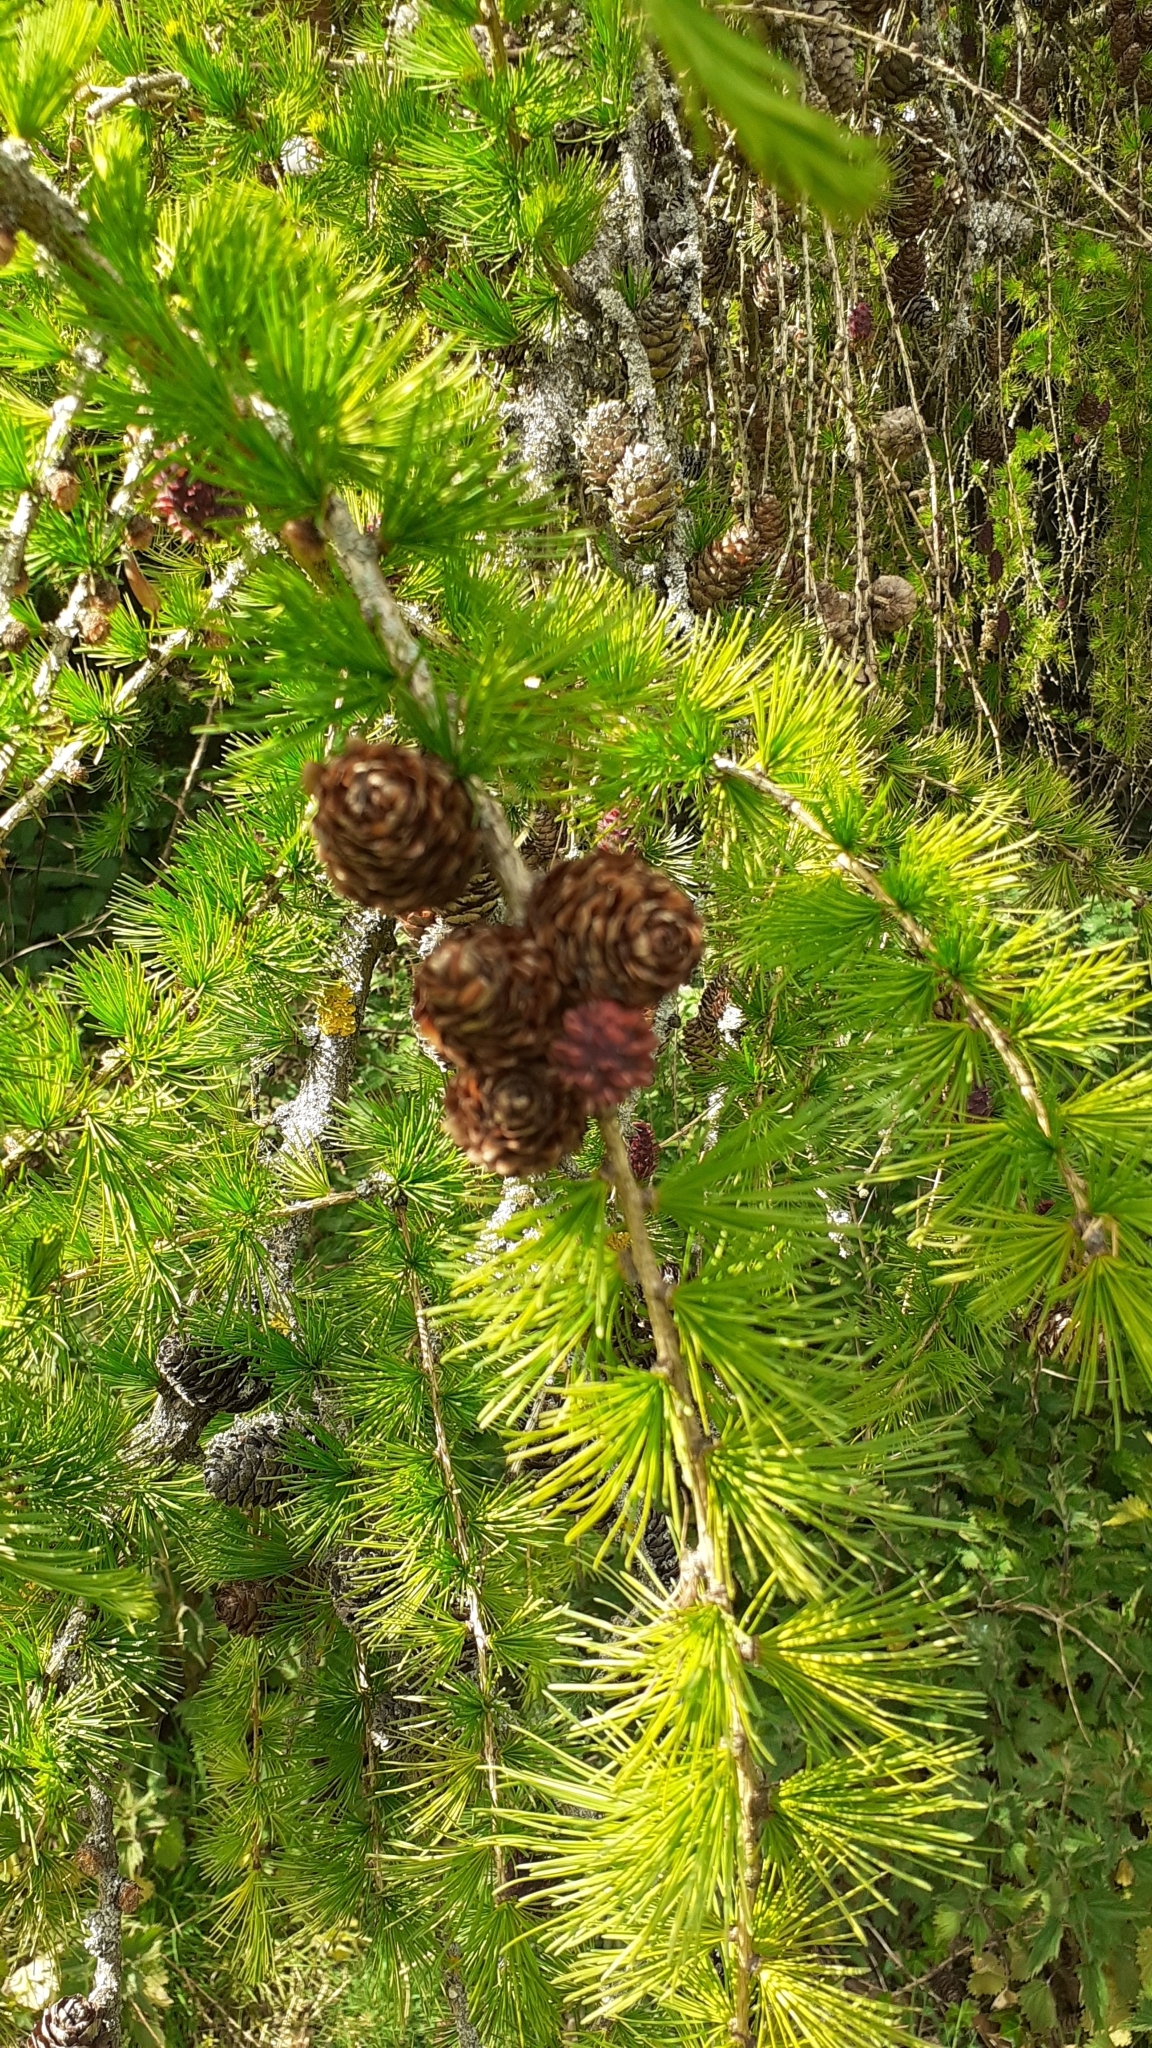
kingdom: Plantae
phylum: Tracheophyta
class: Pinopsida
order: Pinales
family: Pinaceae
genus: Larix
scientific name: Larix decidua
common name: European larch
